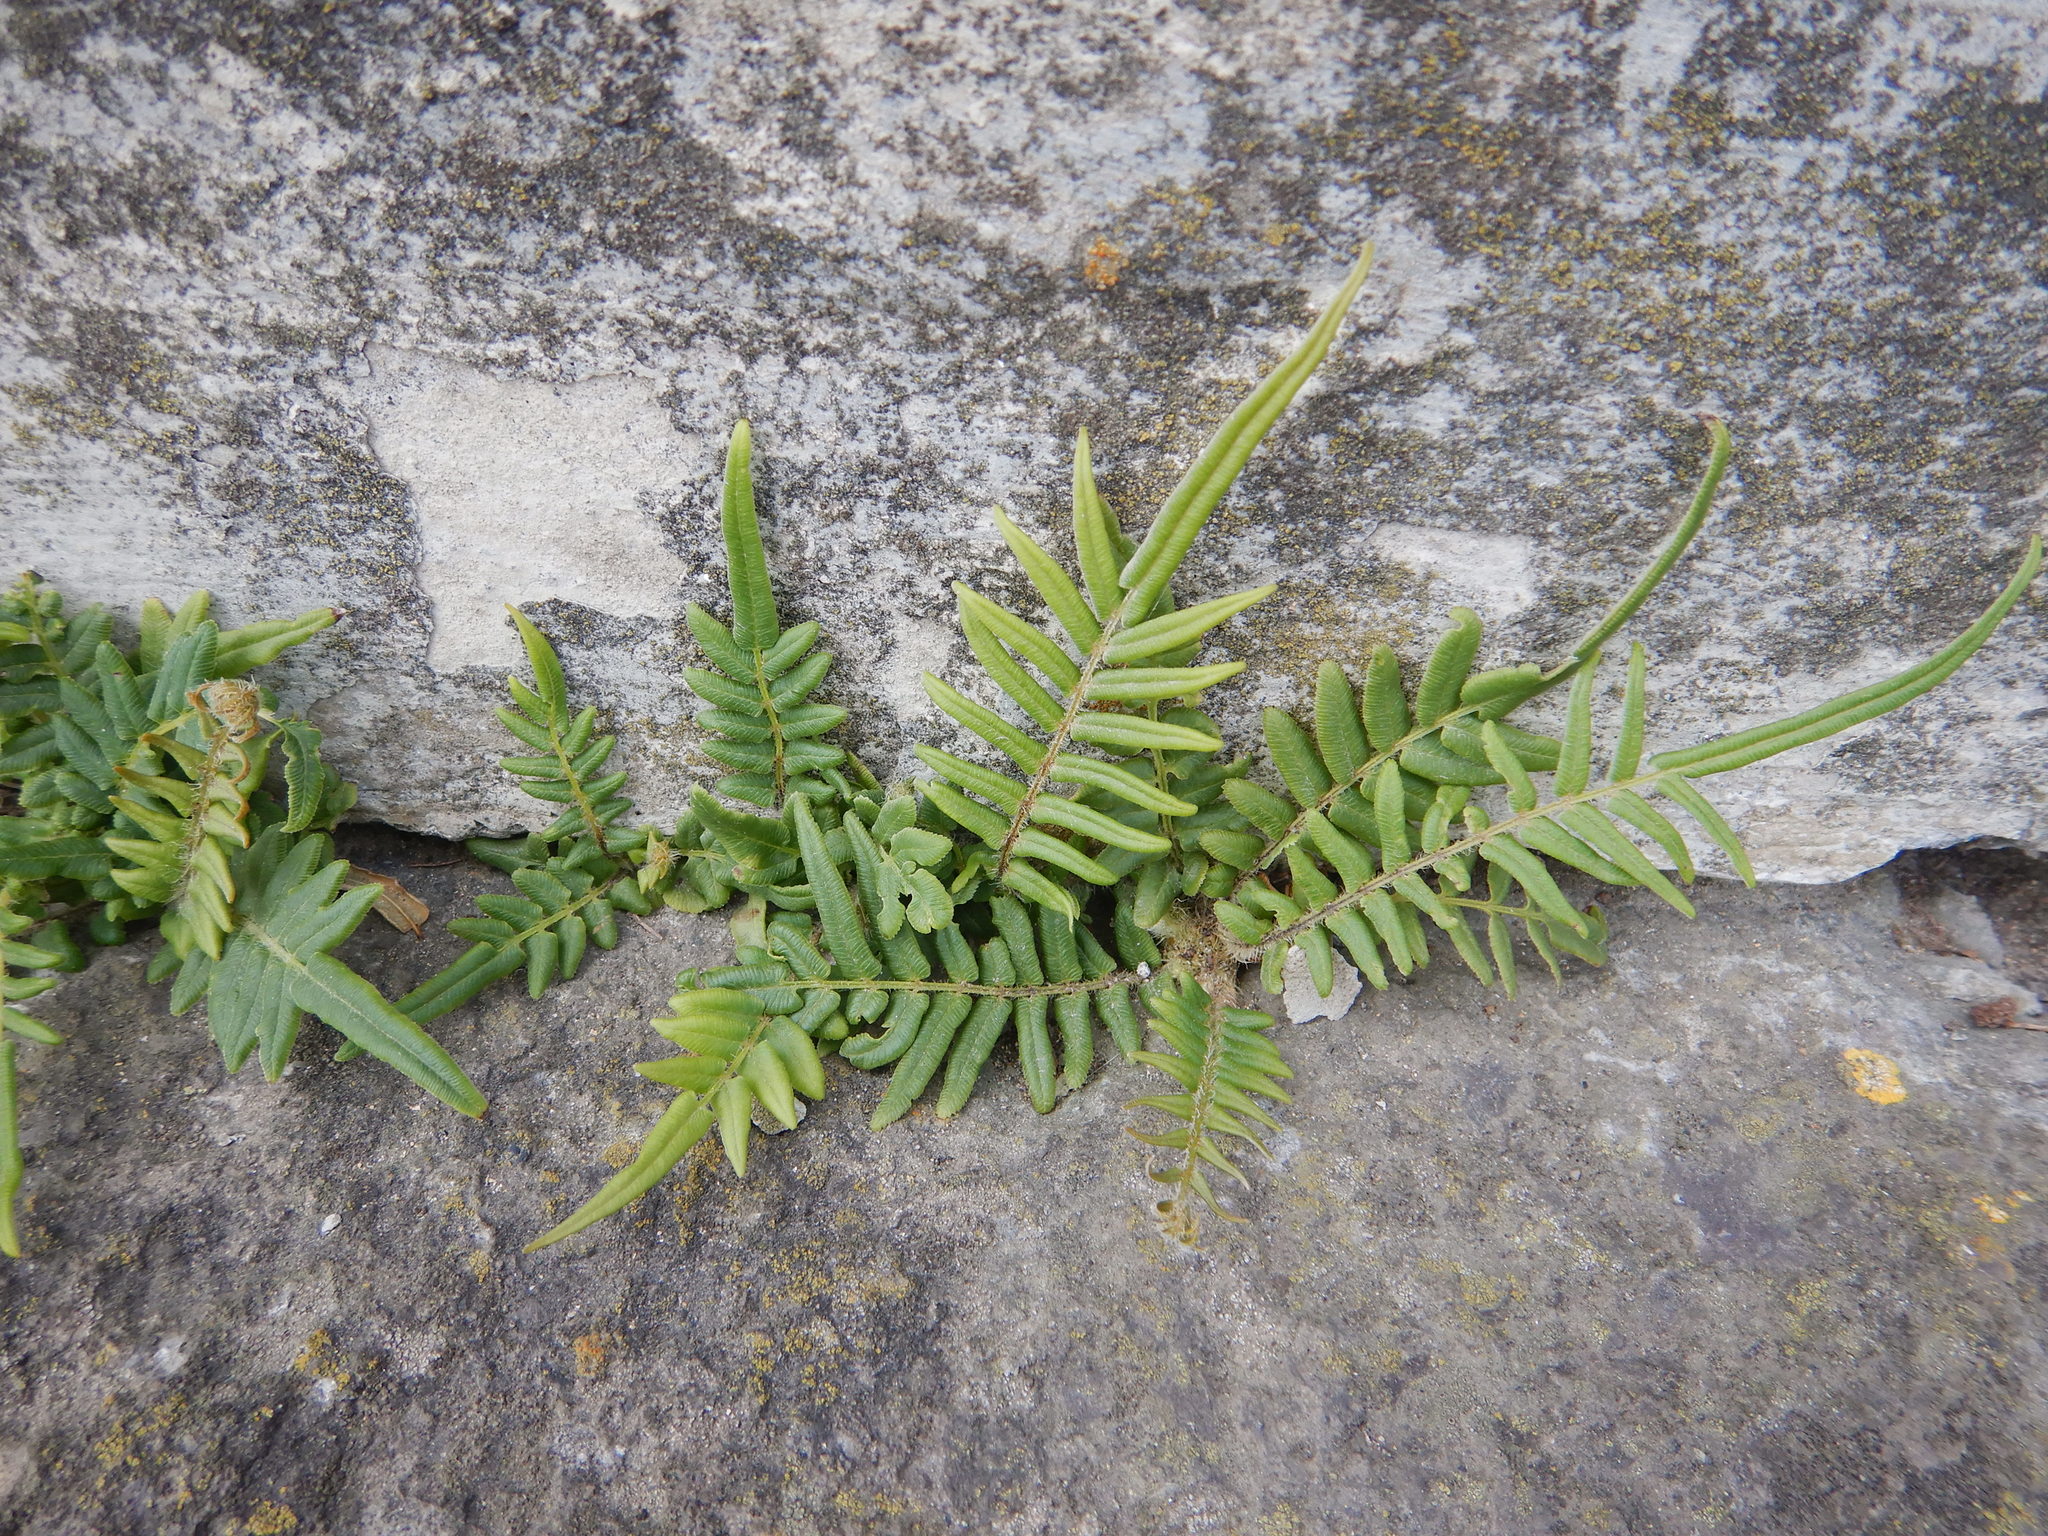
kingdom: Plantae
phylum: Tracheophyta
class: Polypodiopsida
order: Polypodiales
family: Pteridaceae
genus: Pteris
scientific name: Pteris vittata
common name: Ladder brake
